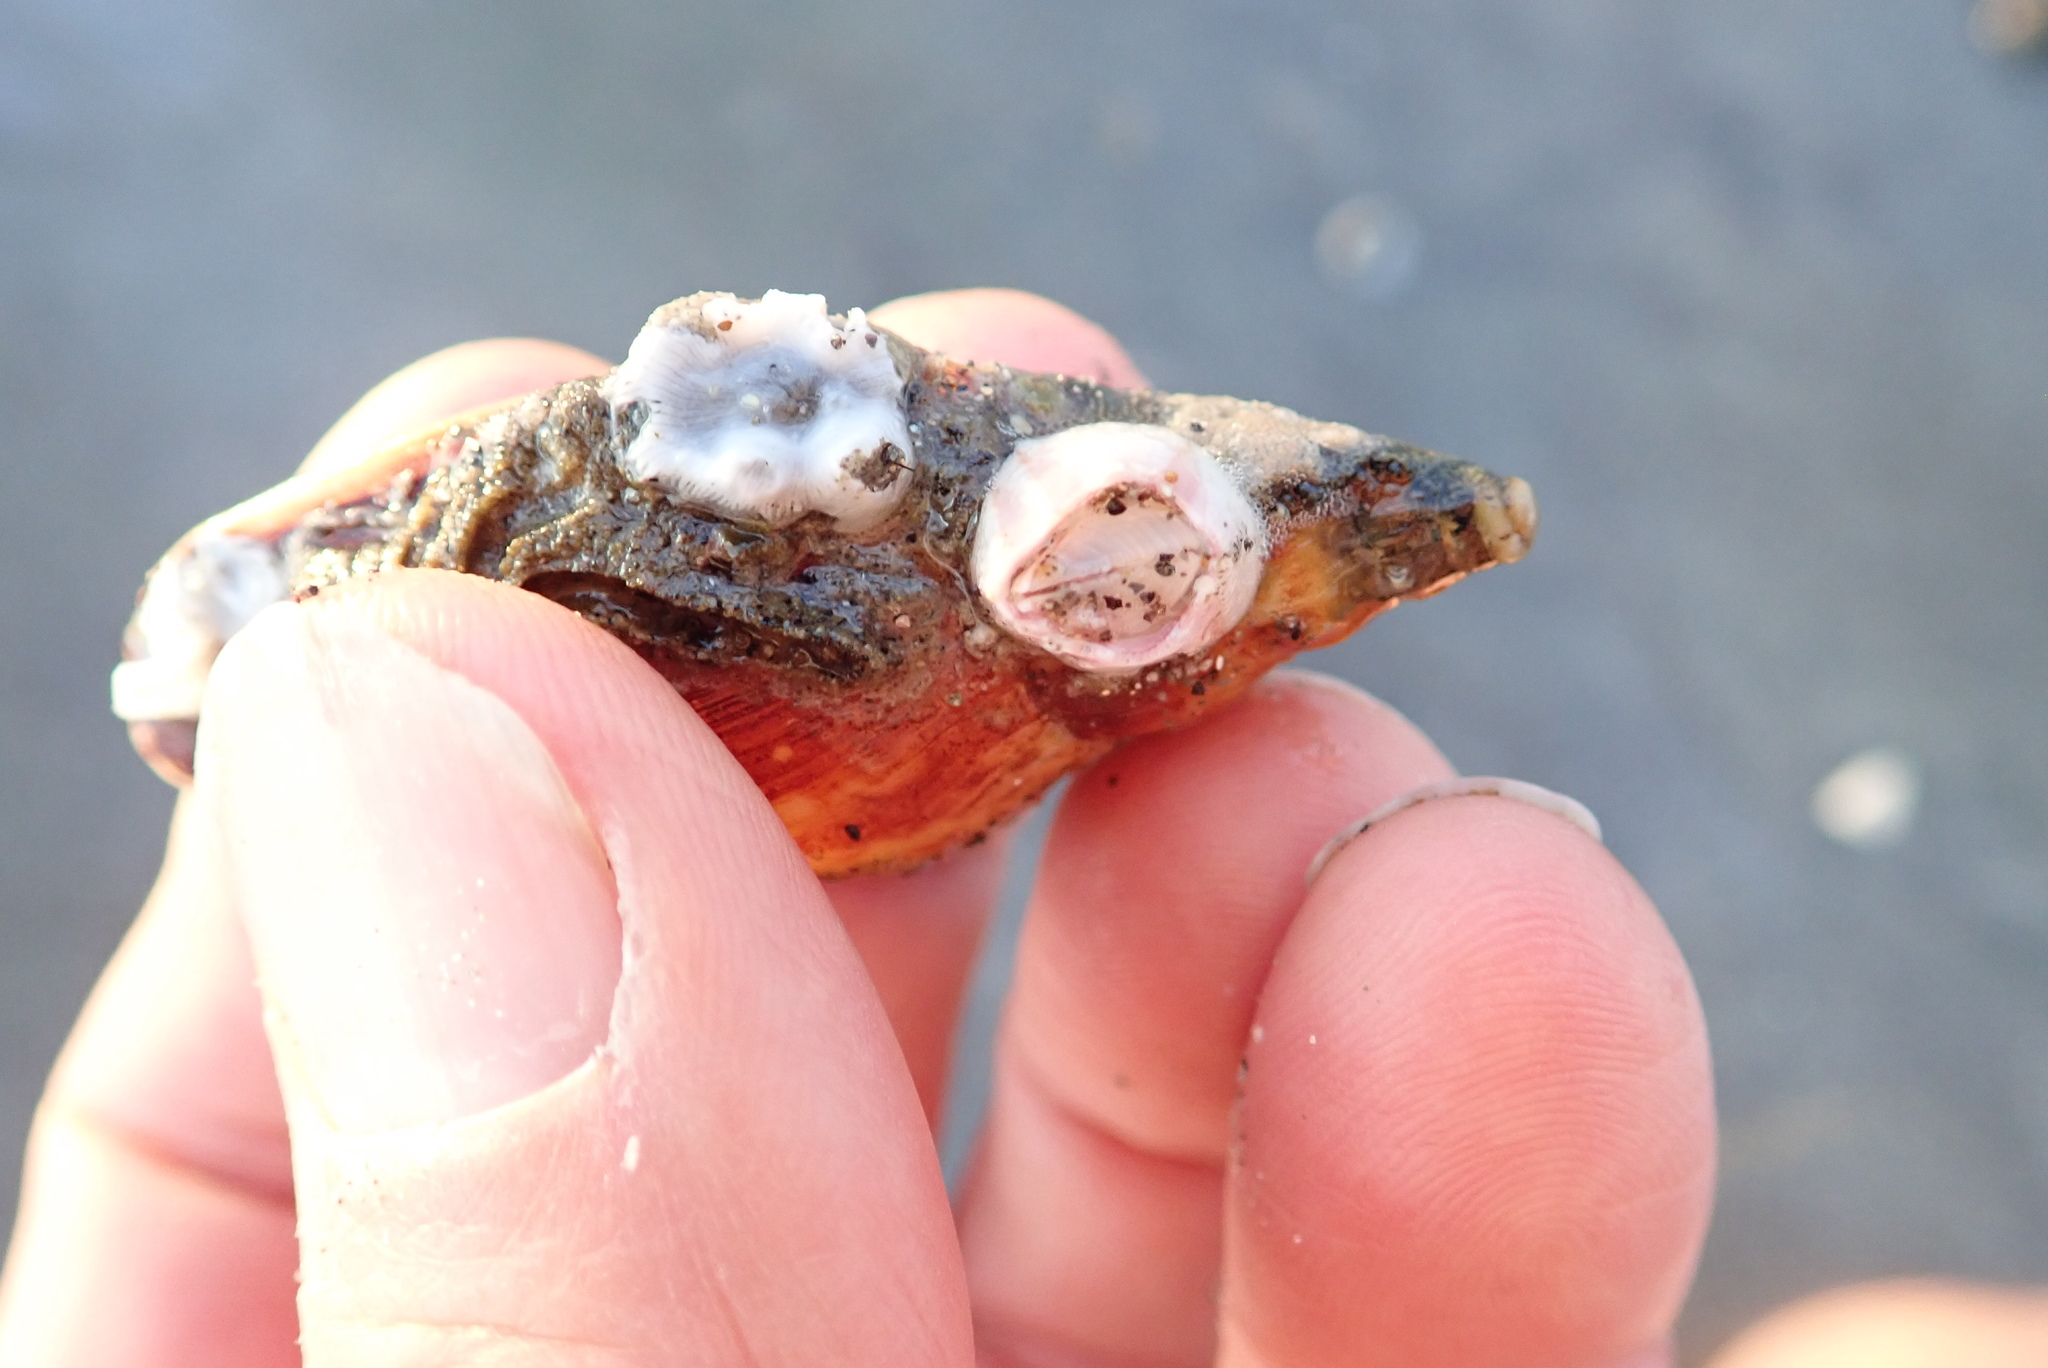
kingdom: Animalia
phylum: Mollusca
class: Gastropoda
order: Neogastropoda
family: Volutidae
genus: Alcithoe
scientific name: Alcithoe fusus
